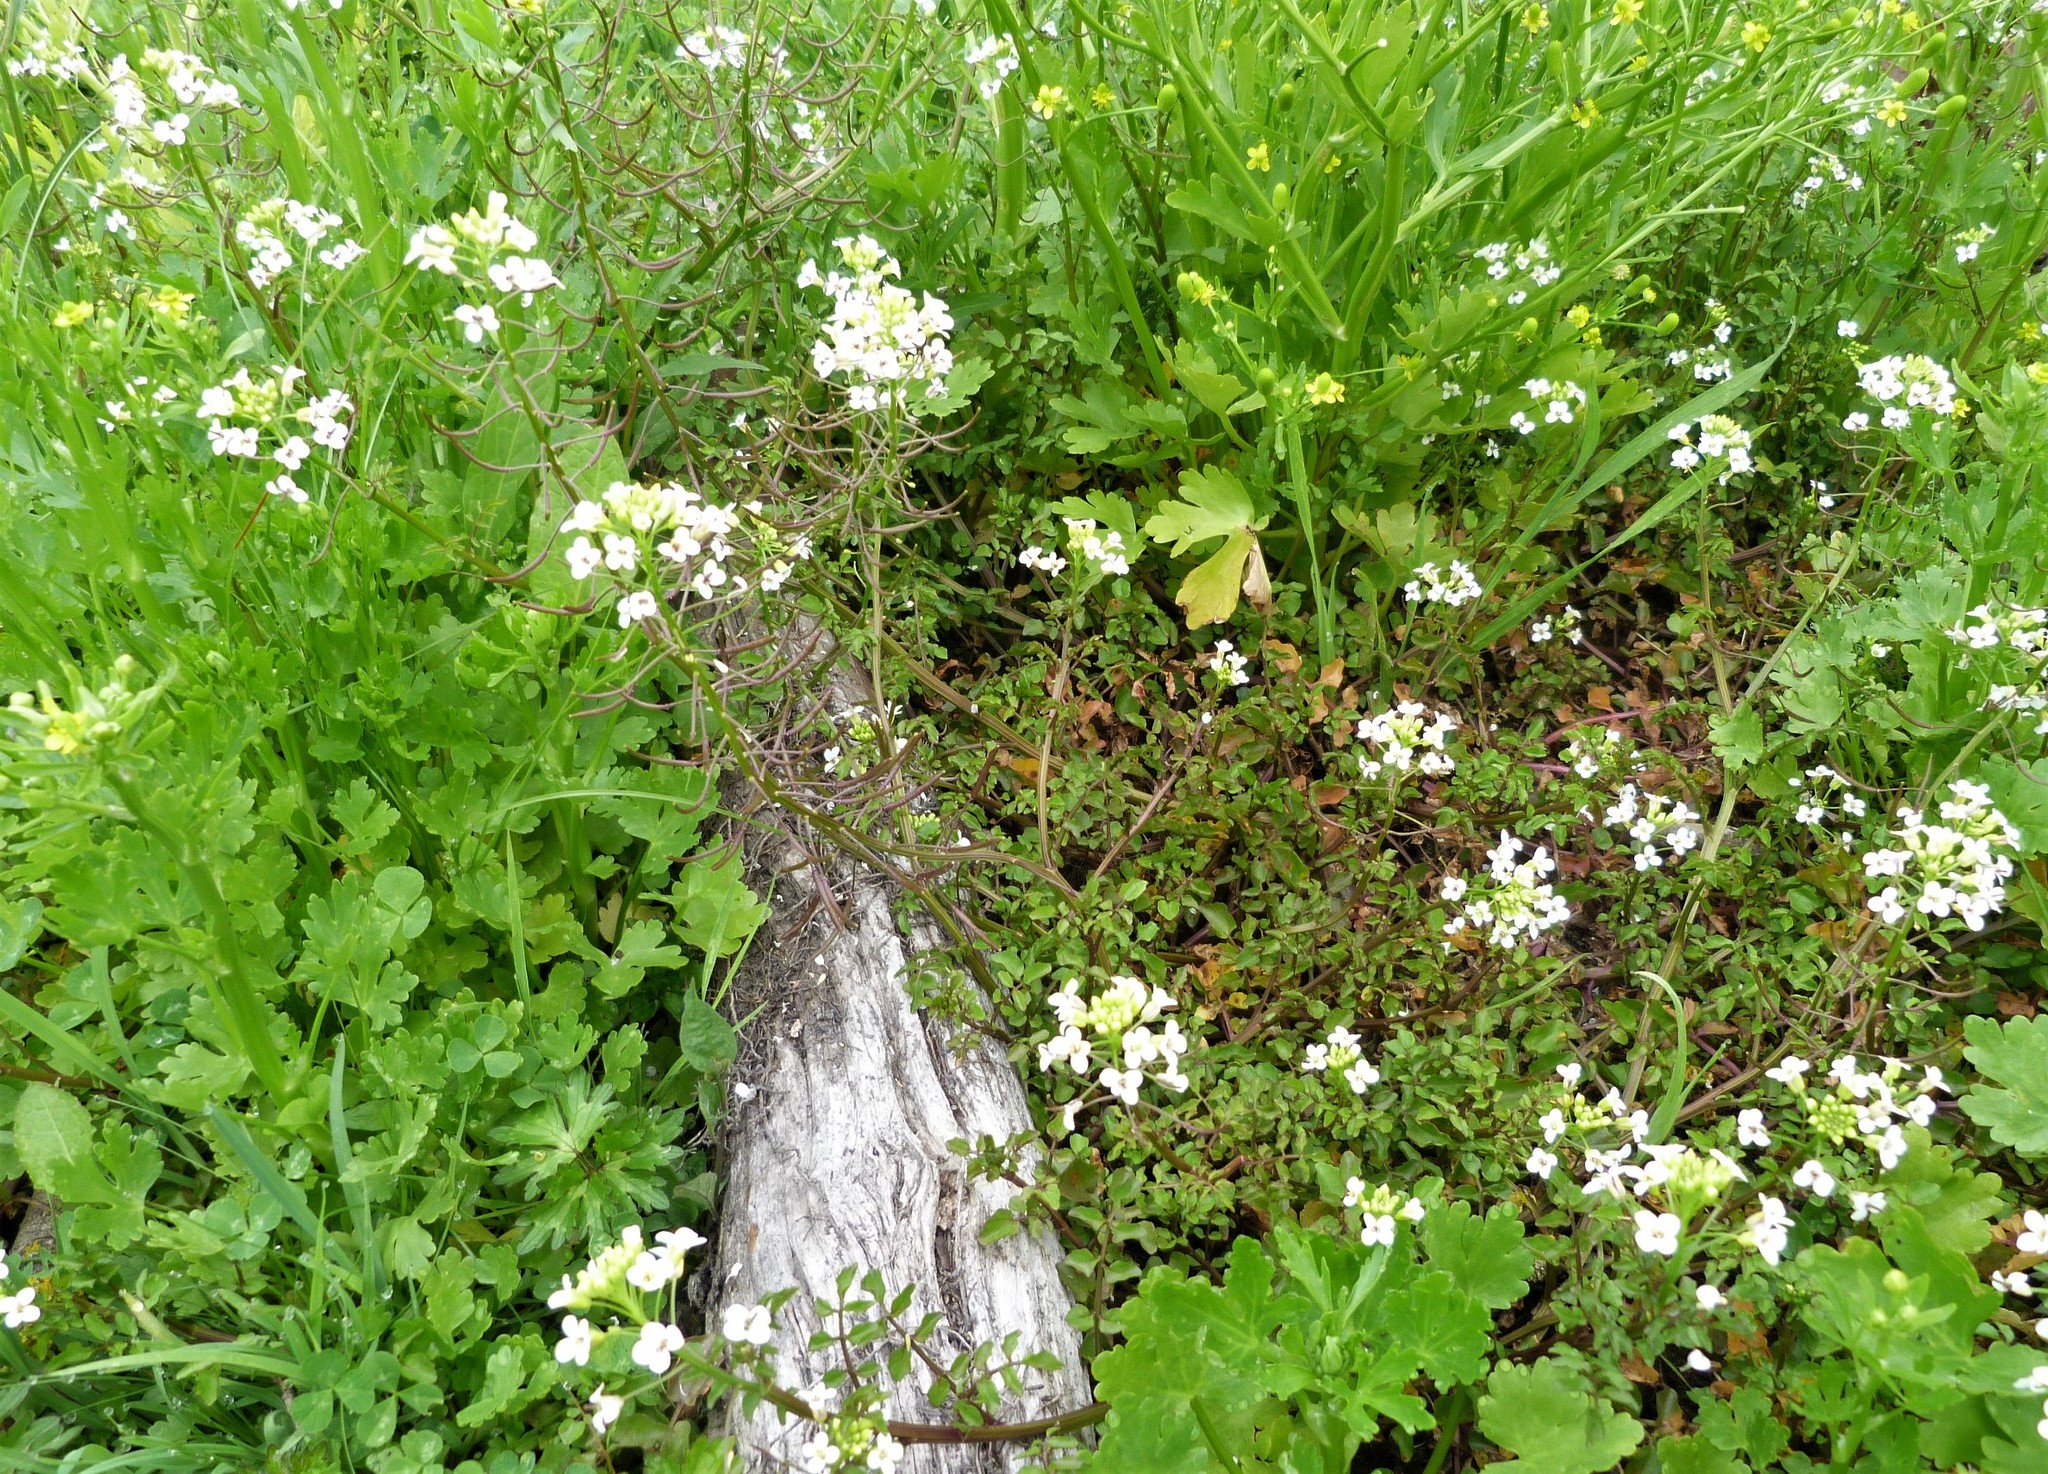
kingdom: Plantae
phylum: Tracheophyta
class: Magnoliopsida
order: Brassicales
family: Brassicaceae
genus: Nasturtium
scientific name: Nasturtium officinale
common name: Watercress
